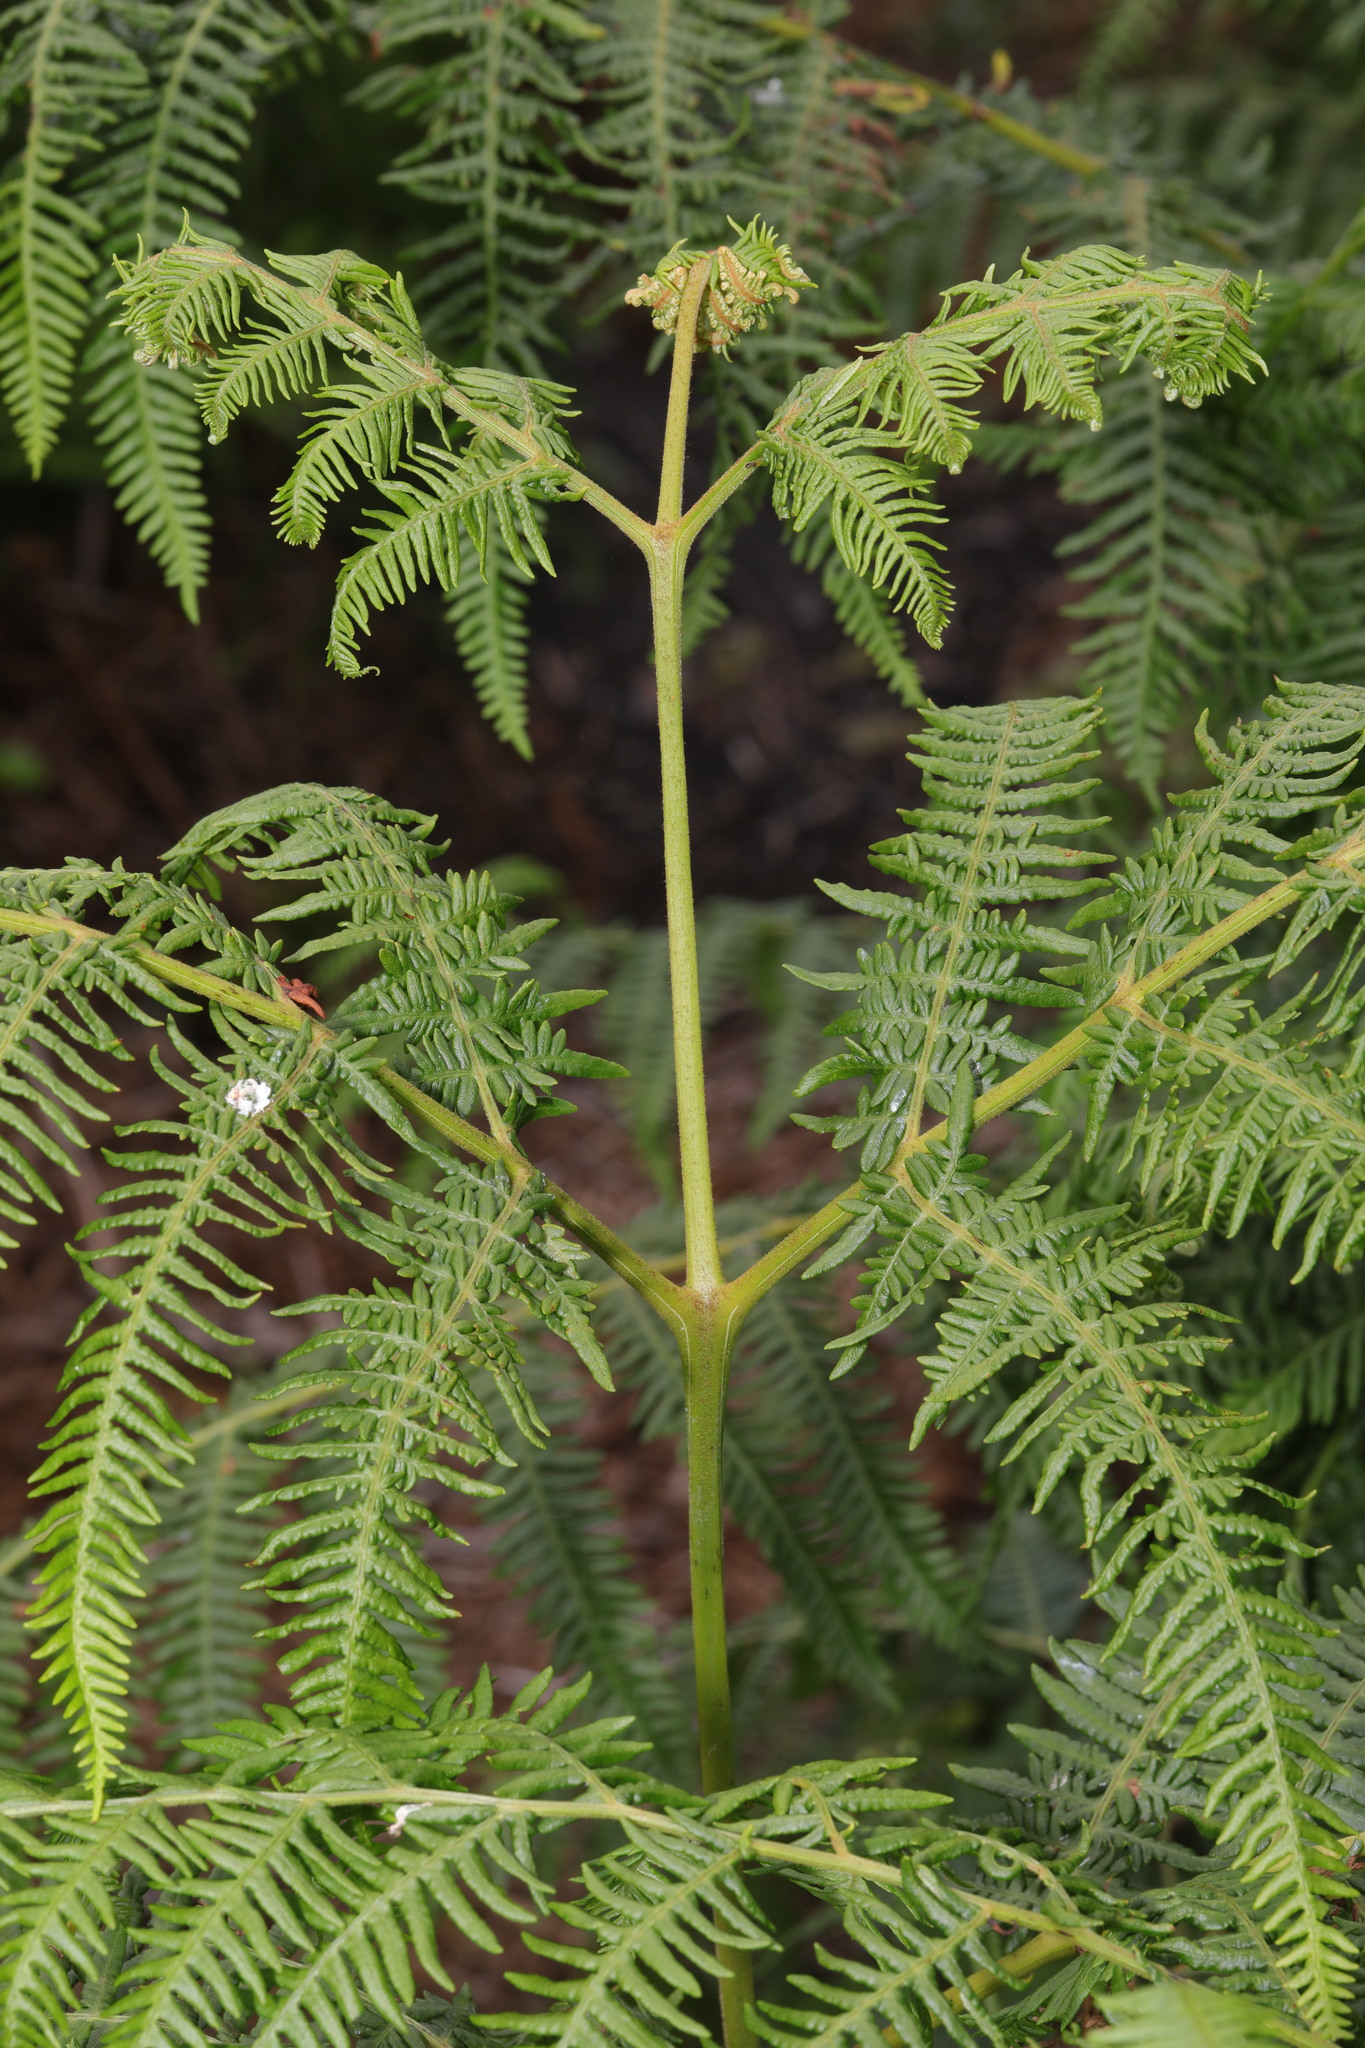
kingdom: Plantae
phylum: Tracheophyta
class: Polypodiopsida
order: Polypodiales
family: Dennstaedtiaceae
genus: Pteridium
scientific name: Pteridium aquilinum
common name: Bracken
